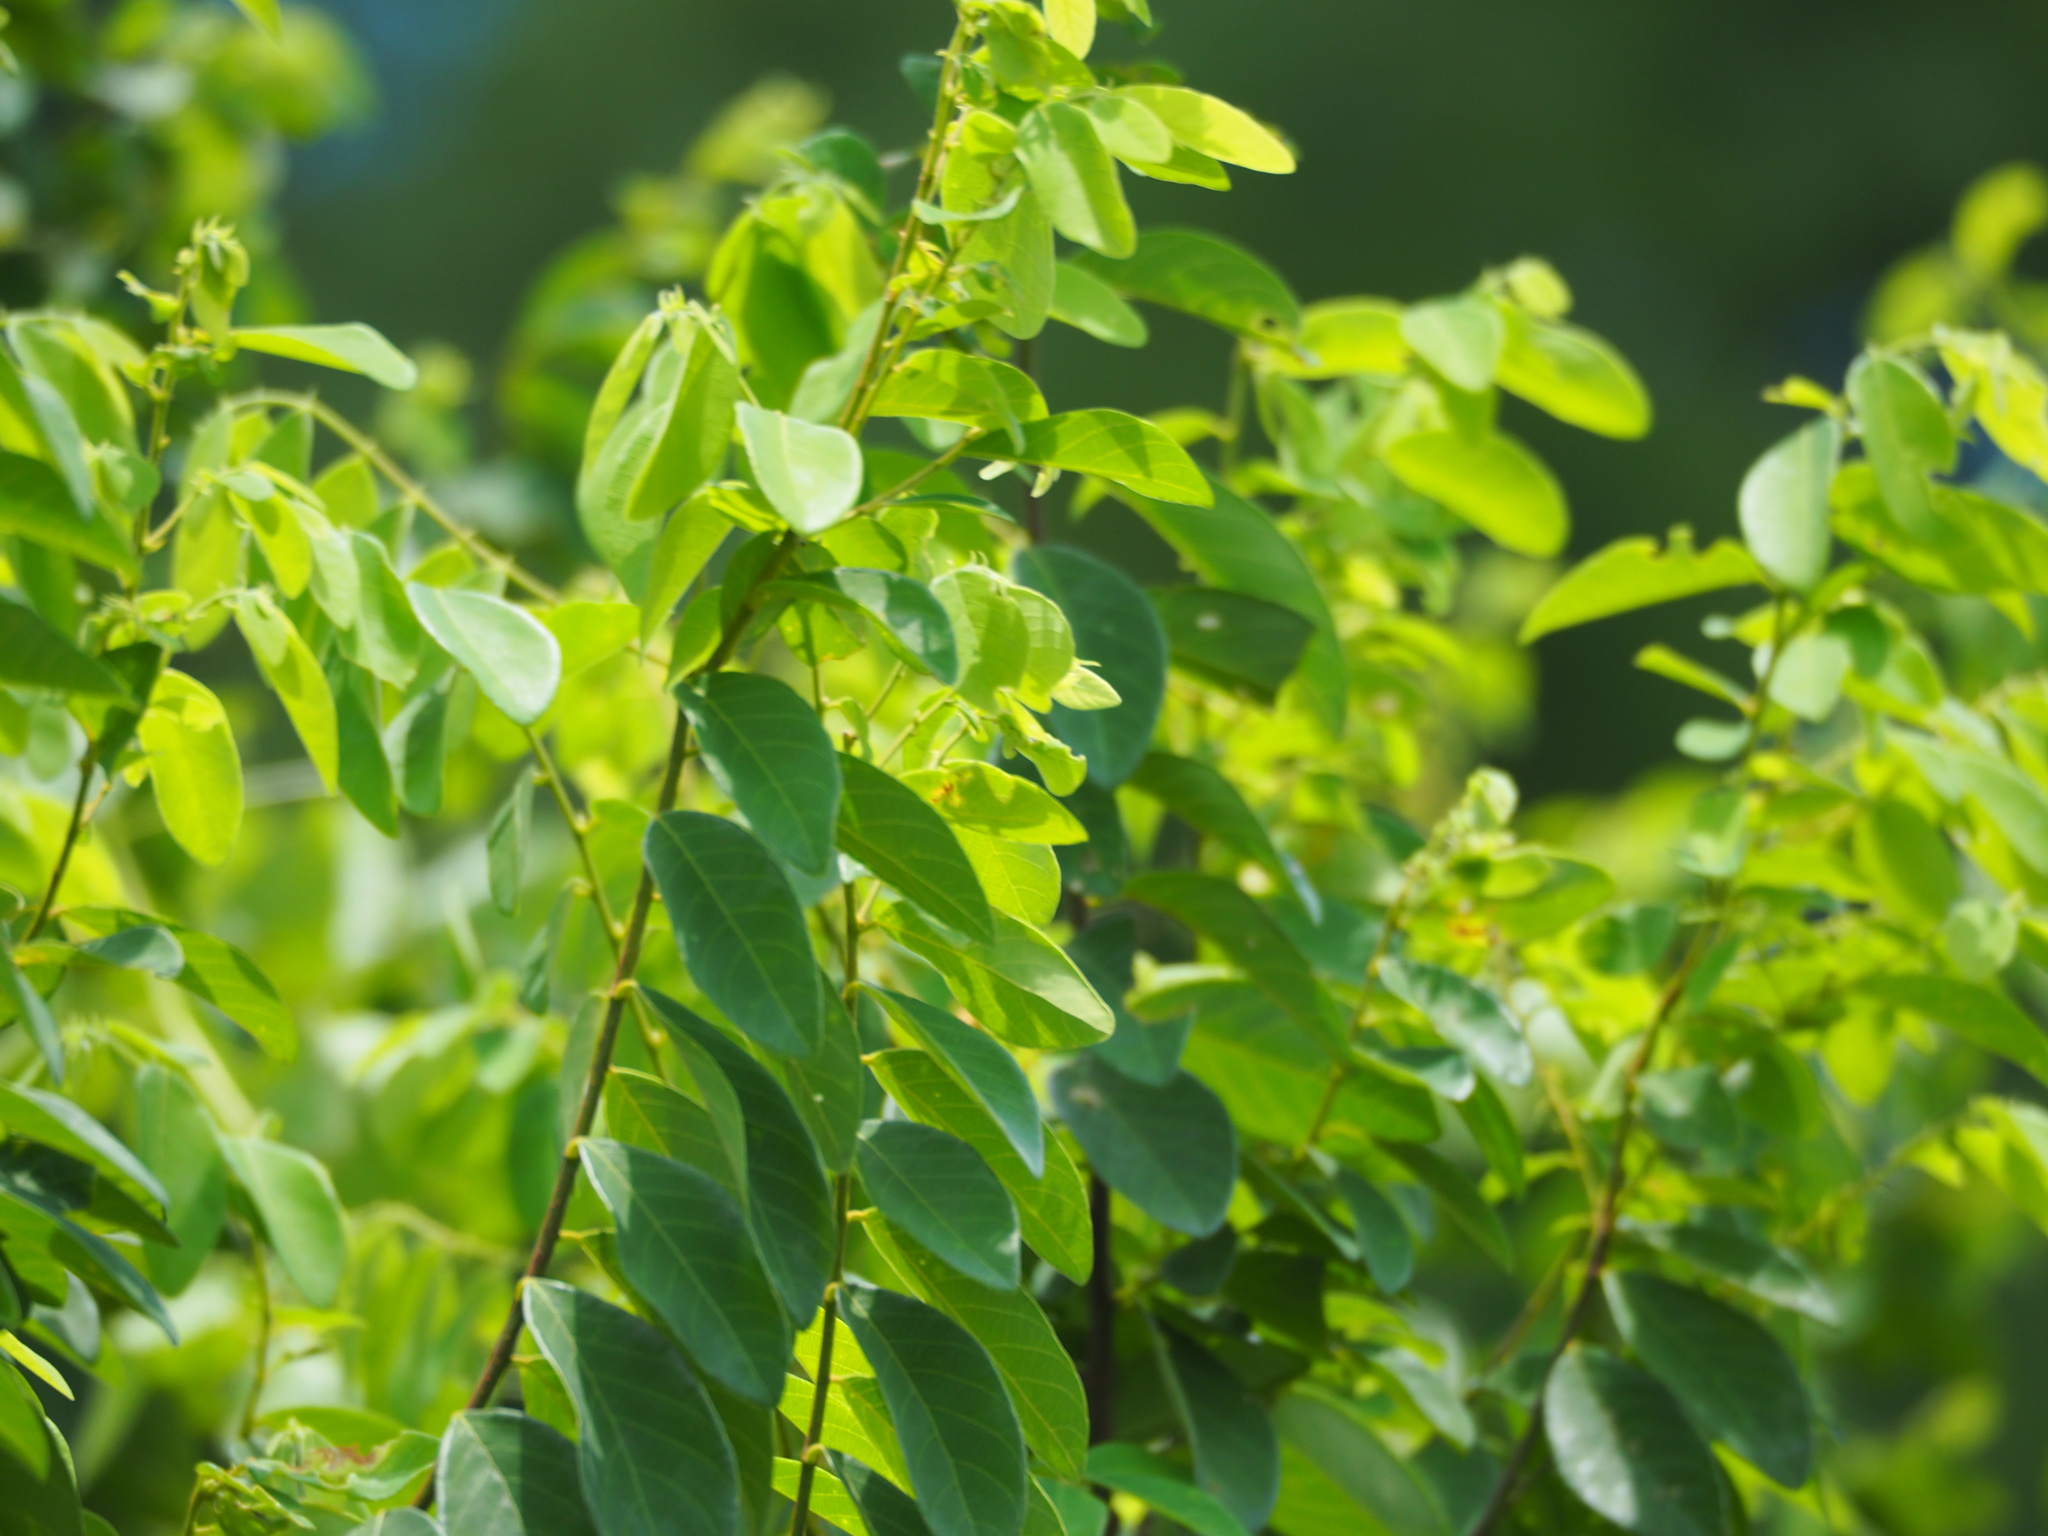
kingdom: Plantae
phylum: Tracheophyta
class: Magnoliopsida
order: Malpighiales
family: Phyllanthaceae
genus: Bridelia
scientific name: Bridelia tomentosa
